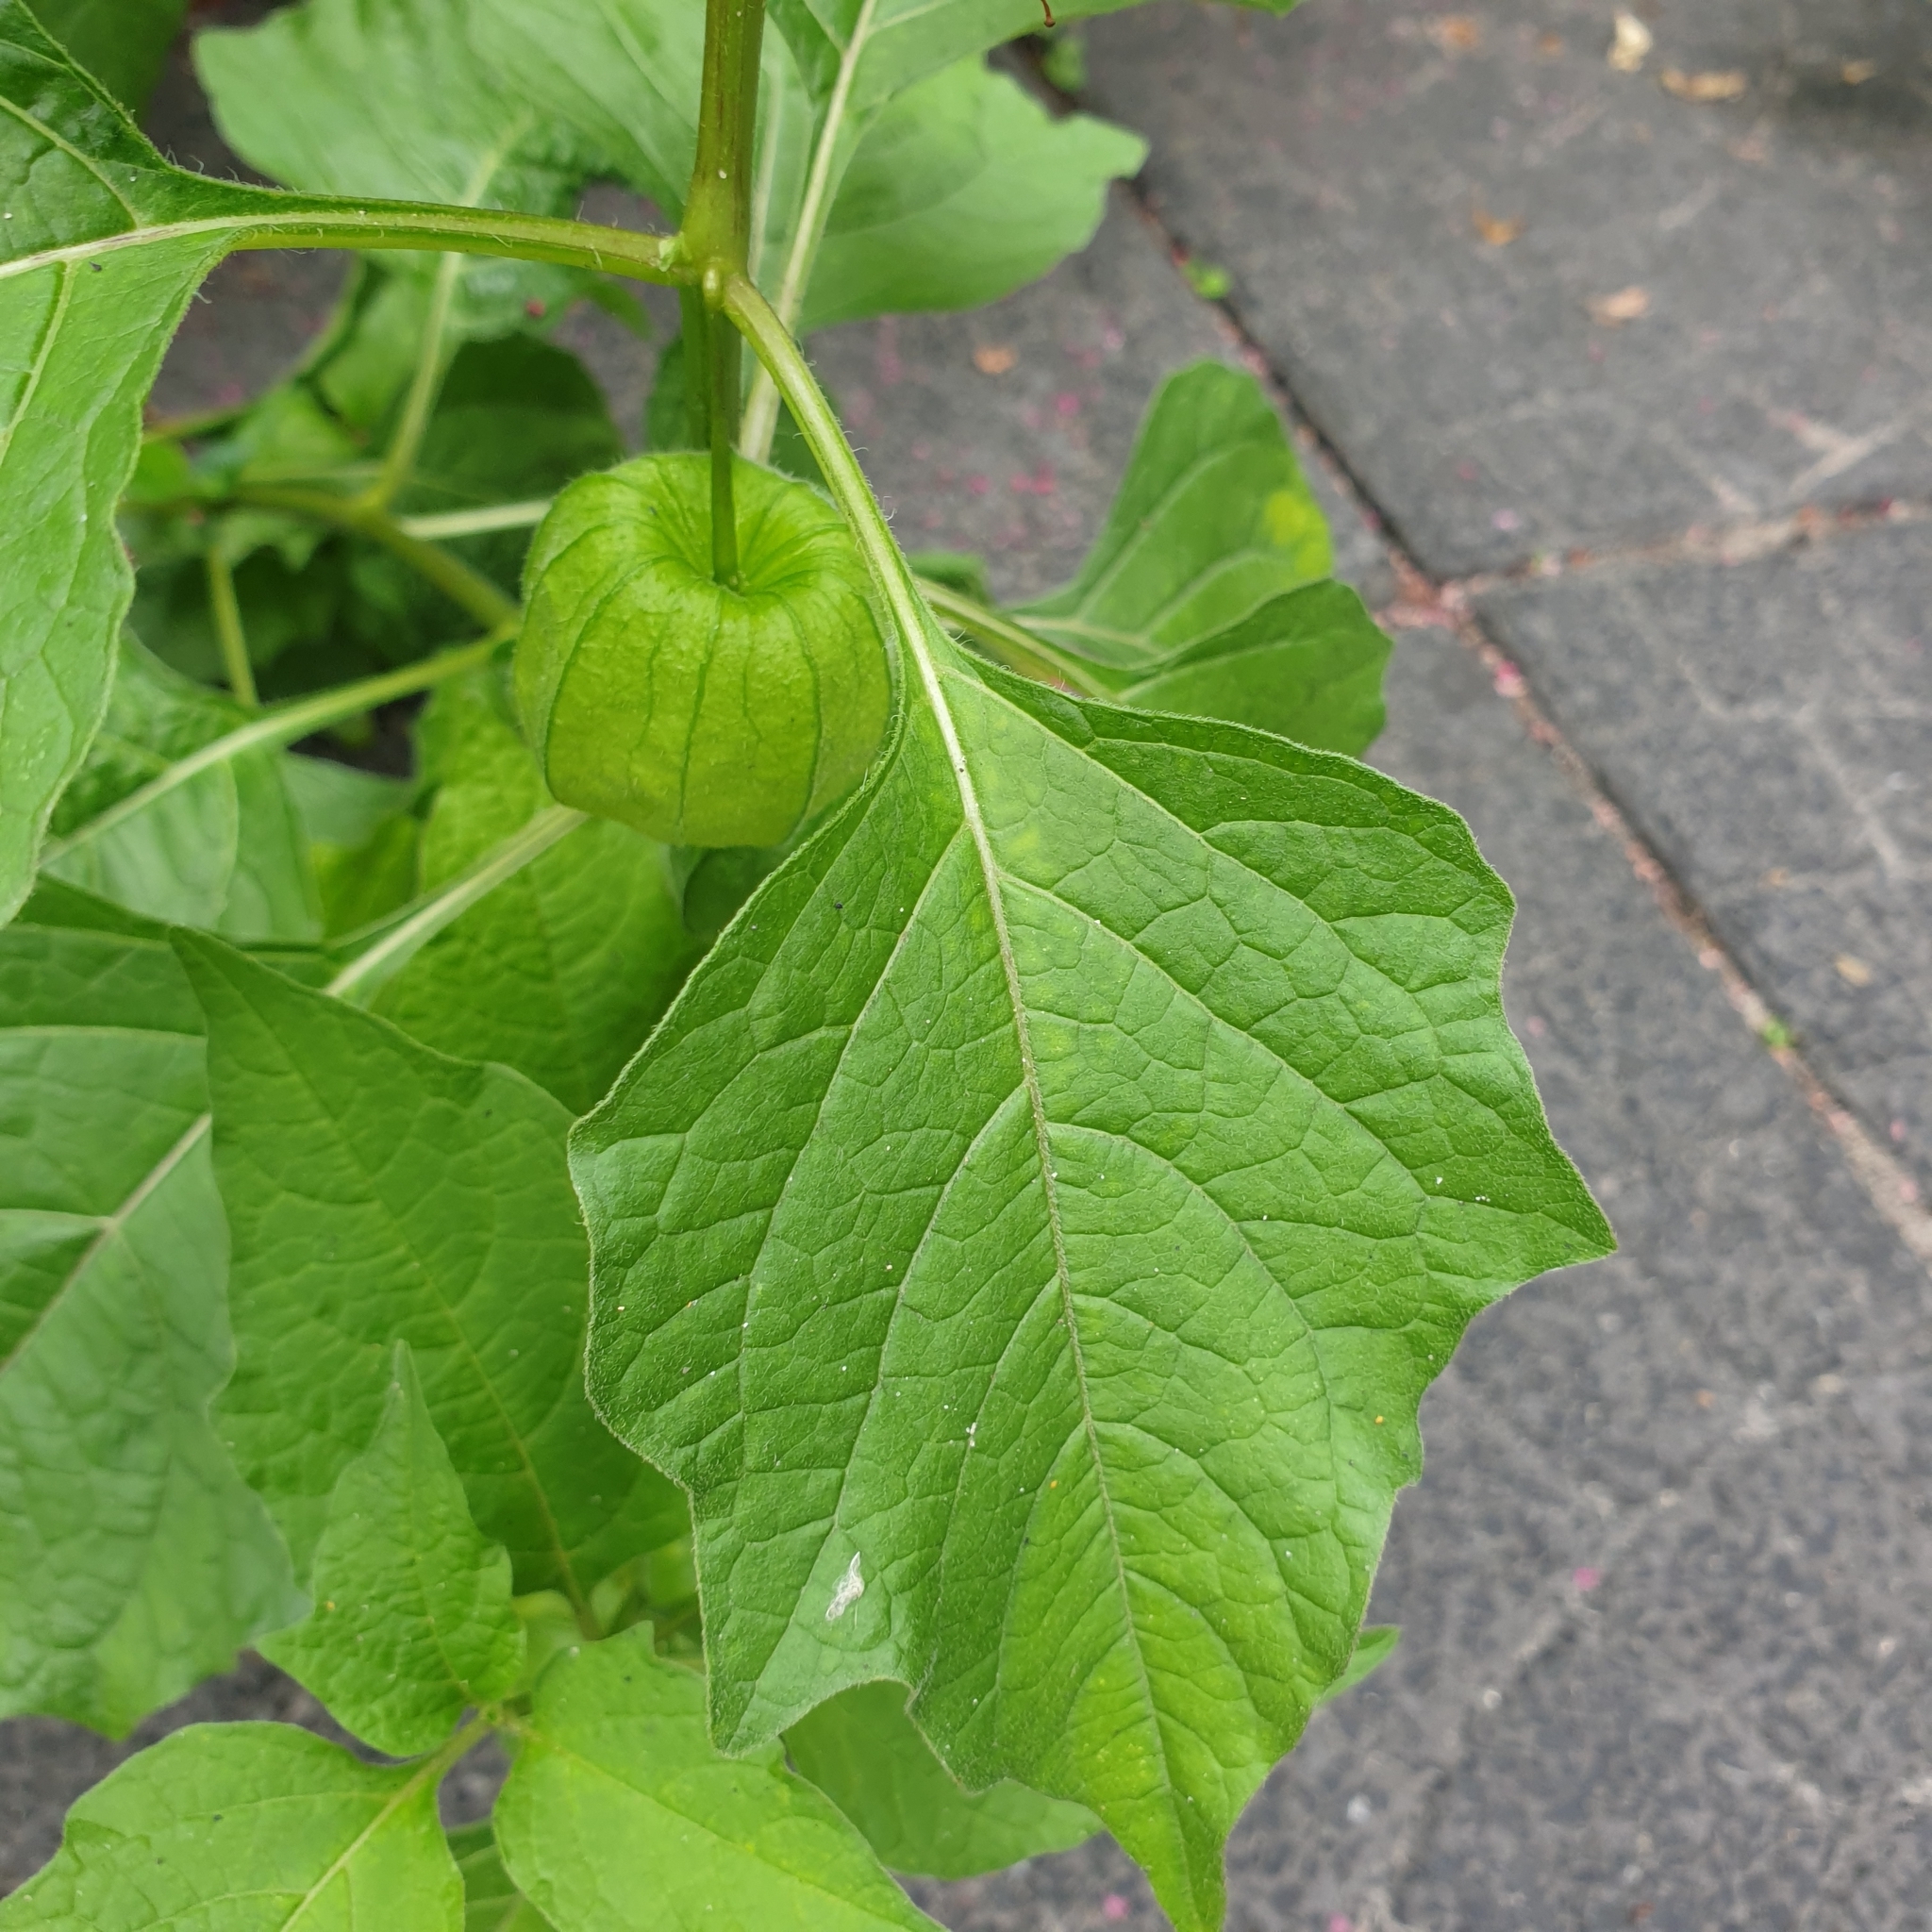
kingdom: Plantae
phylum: Tracheophyta
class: Magnoliopsida
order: Solanales
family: Solanaceae
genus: Alkekengi
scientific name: Alkekengi officinarum
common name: Japanese-lantern
